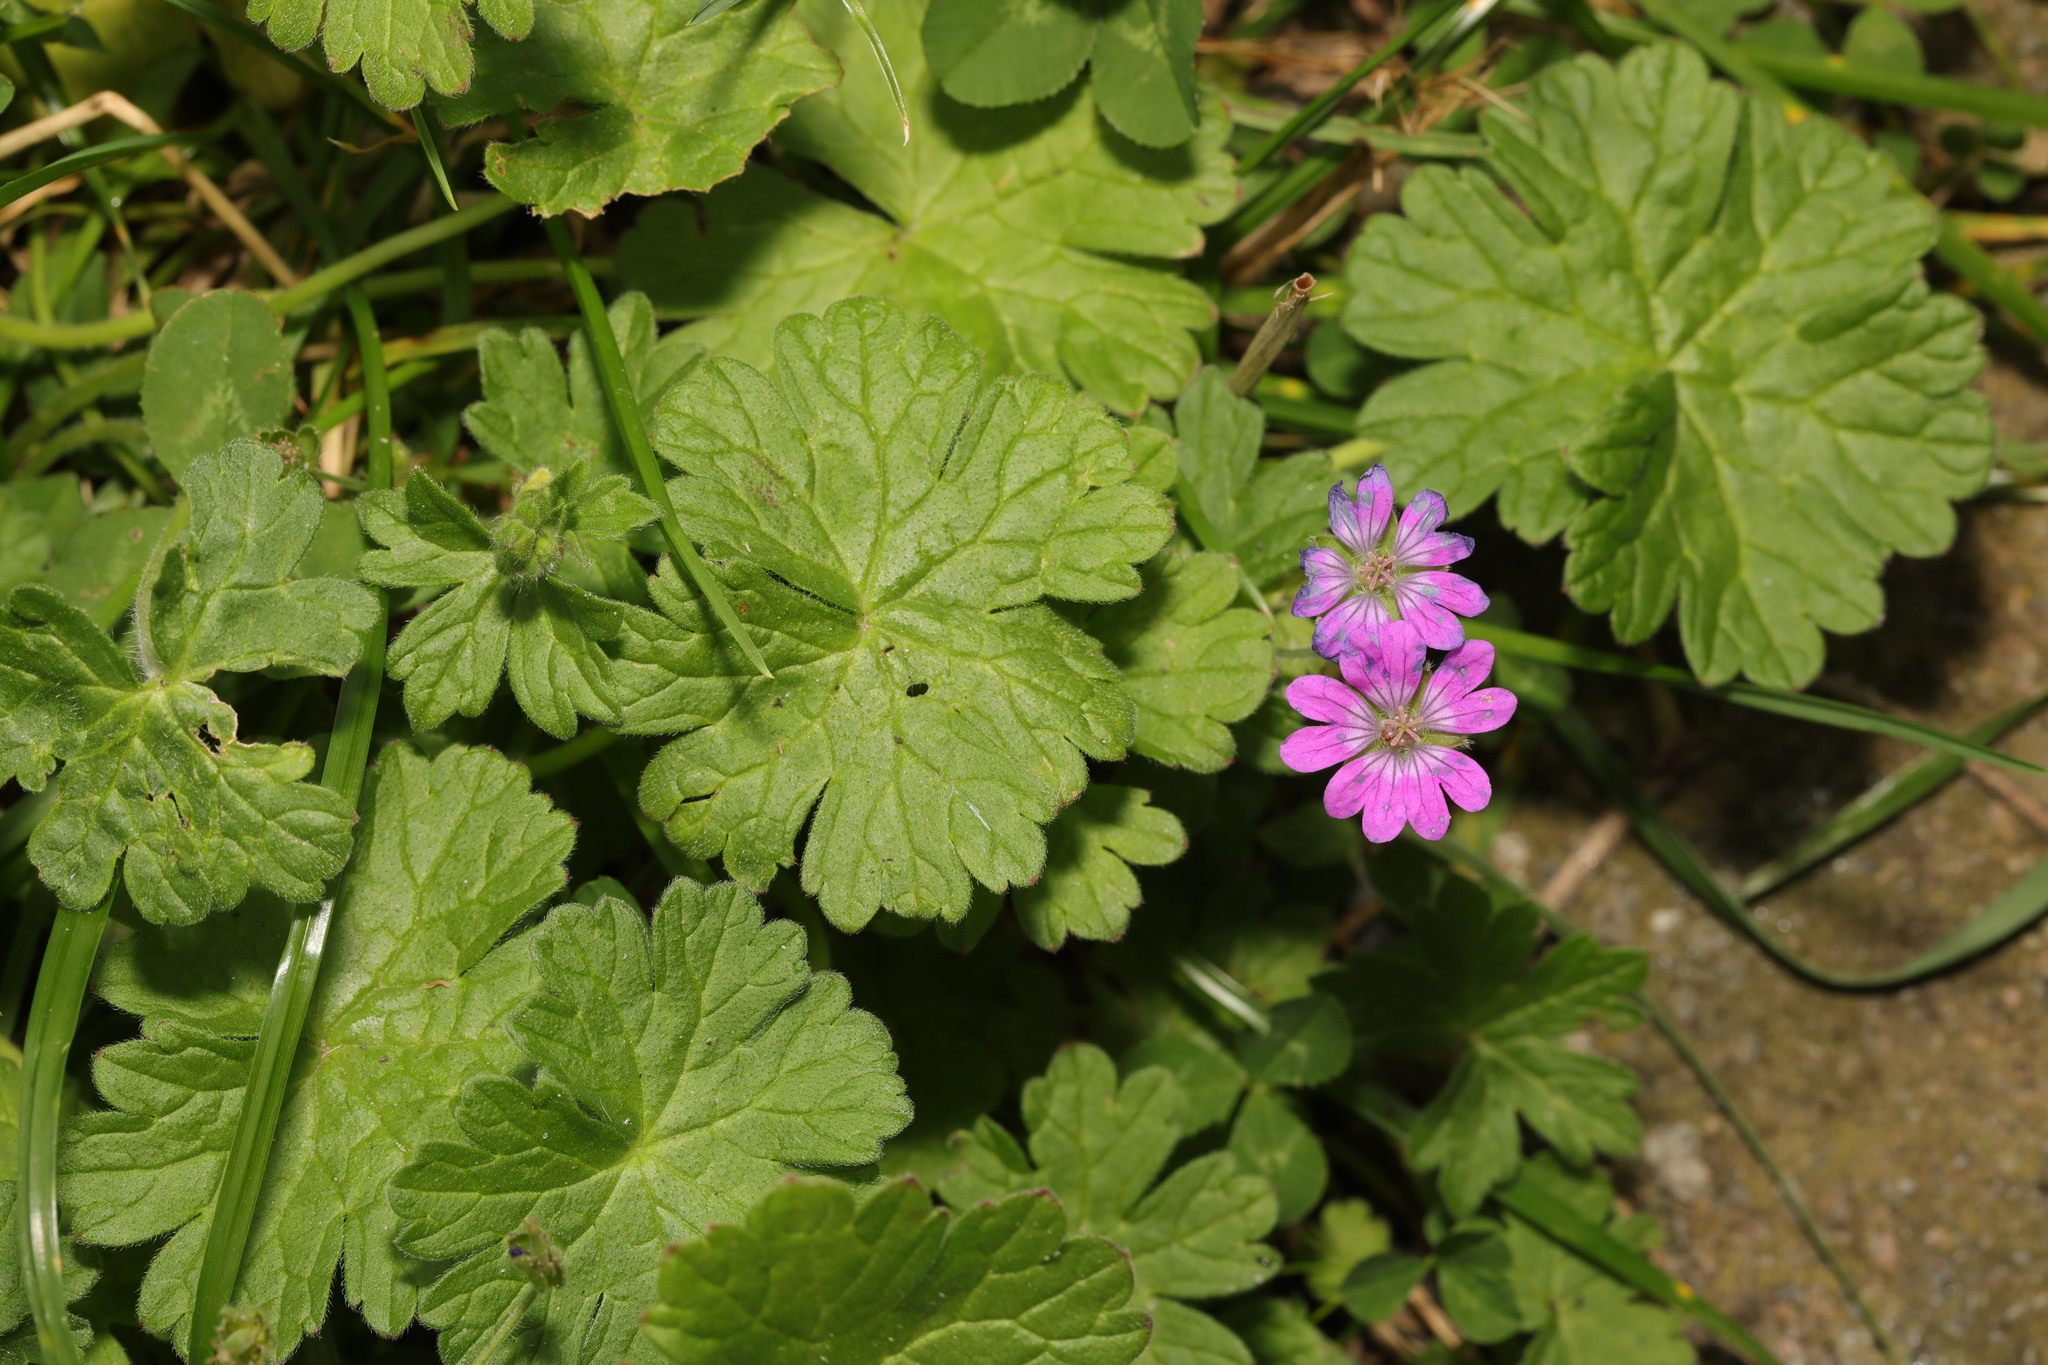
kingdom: Plantae
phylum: Tracheophyta
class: Magnoliopsida
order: Geraniales
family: Geraniaceae
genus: Geranium
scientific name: Geranium molle
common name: Dove's-foot crane's-bill
